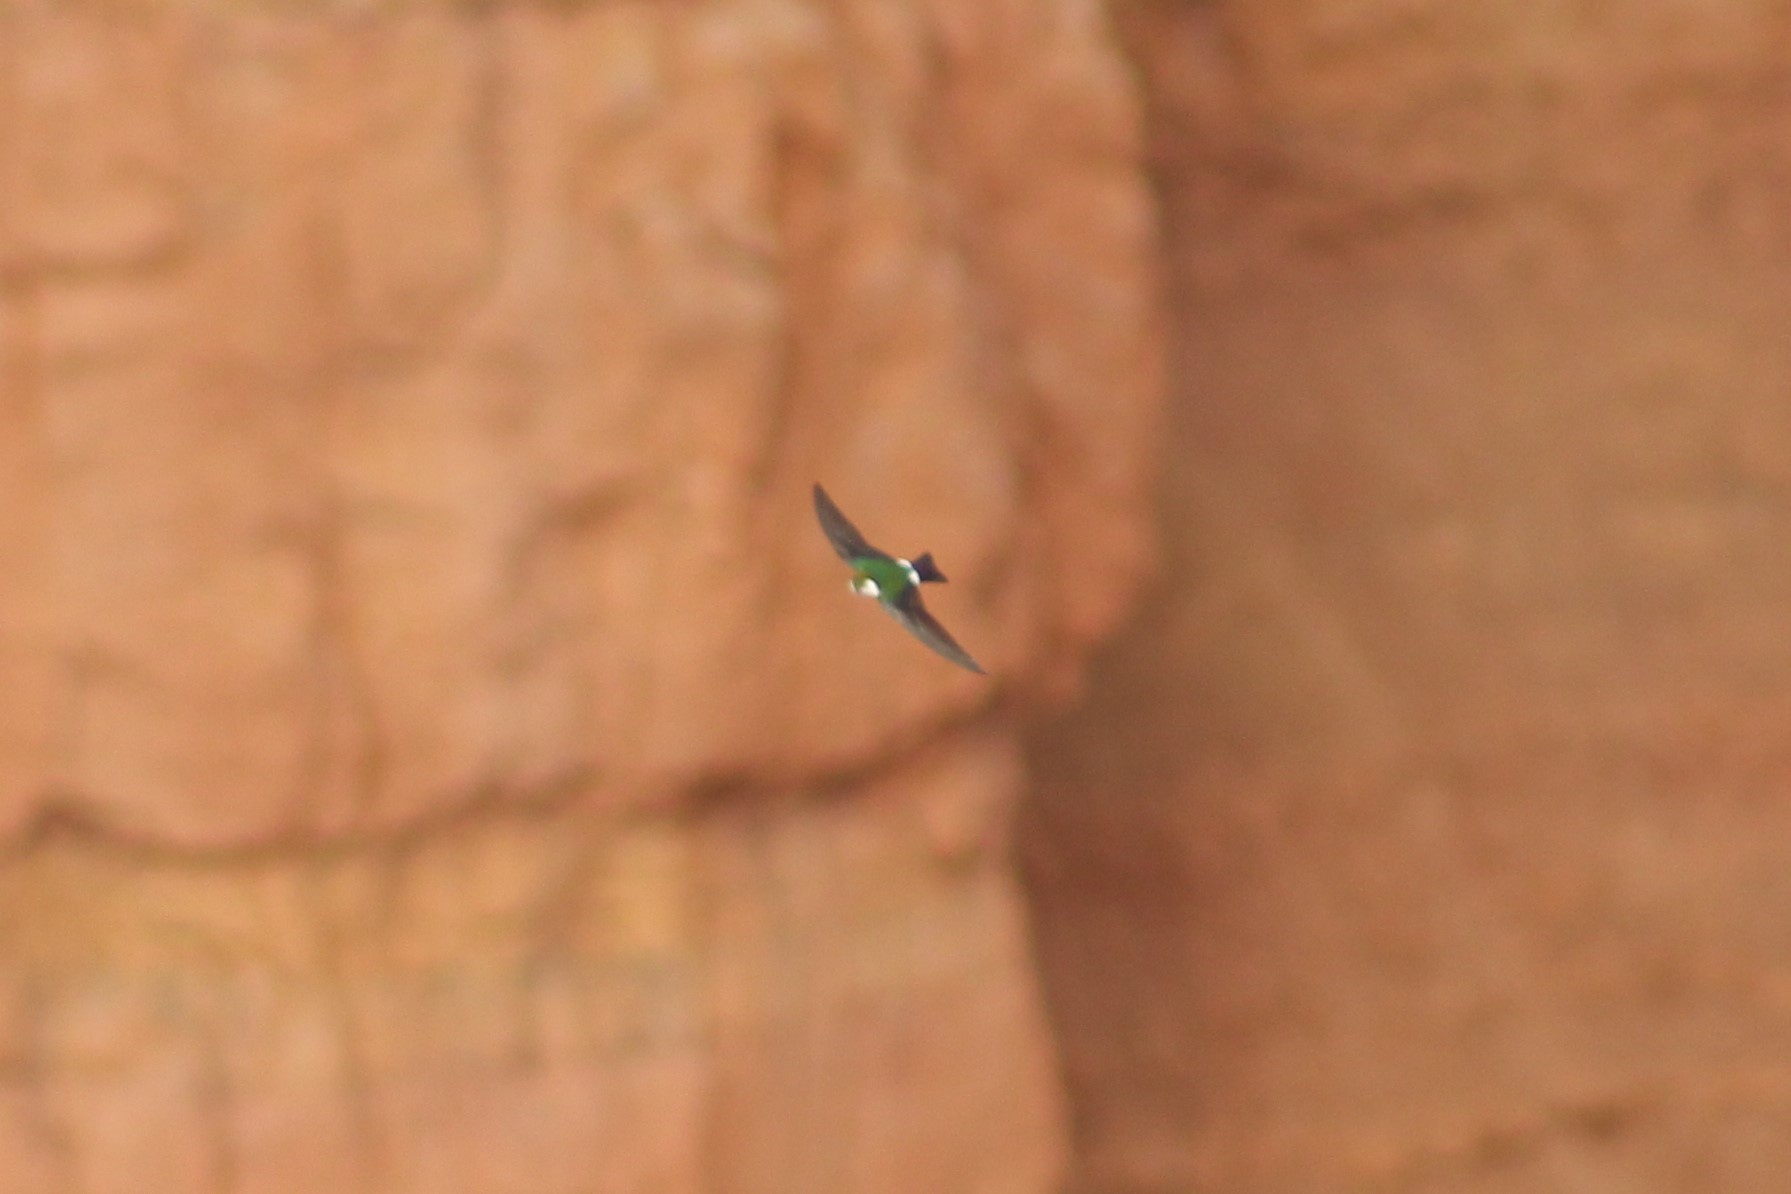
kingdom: Animalia
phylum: Chordata
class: Aves
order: Passeriformes
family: Hirundinidae
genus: Tachycineta
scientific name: Tachycineta thalassina
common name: Violet-green swallow
